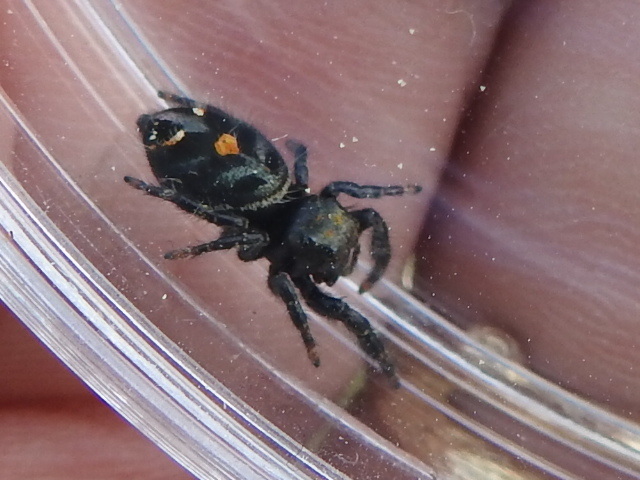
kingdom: Animalia
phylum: Arthropoda
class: Arachnida
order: Araneae
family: Salticidae
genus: Phidippus
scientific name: Phidippus audax
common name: Bold jumper
